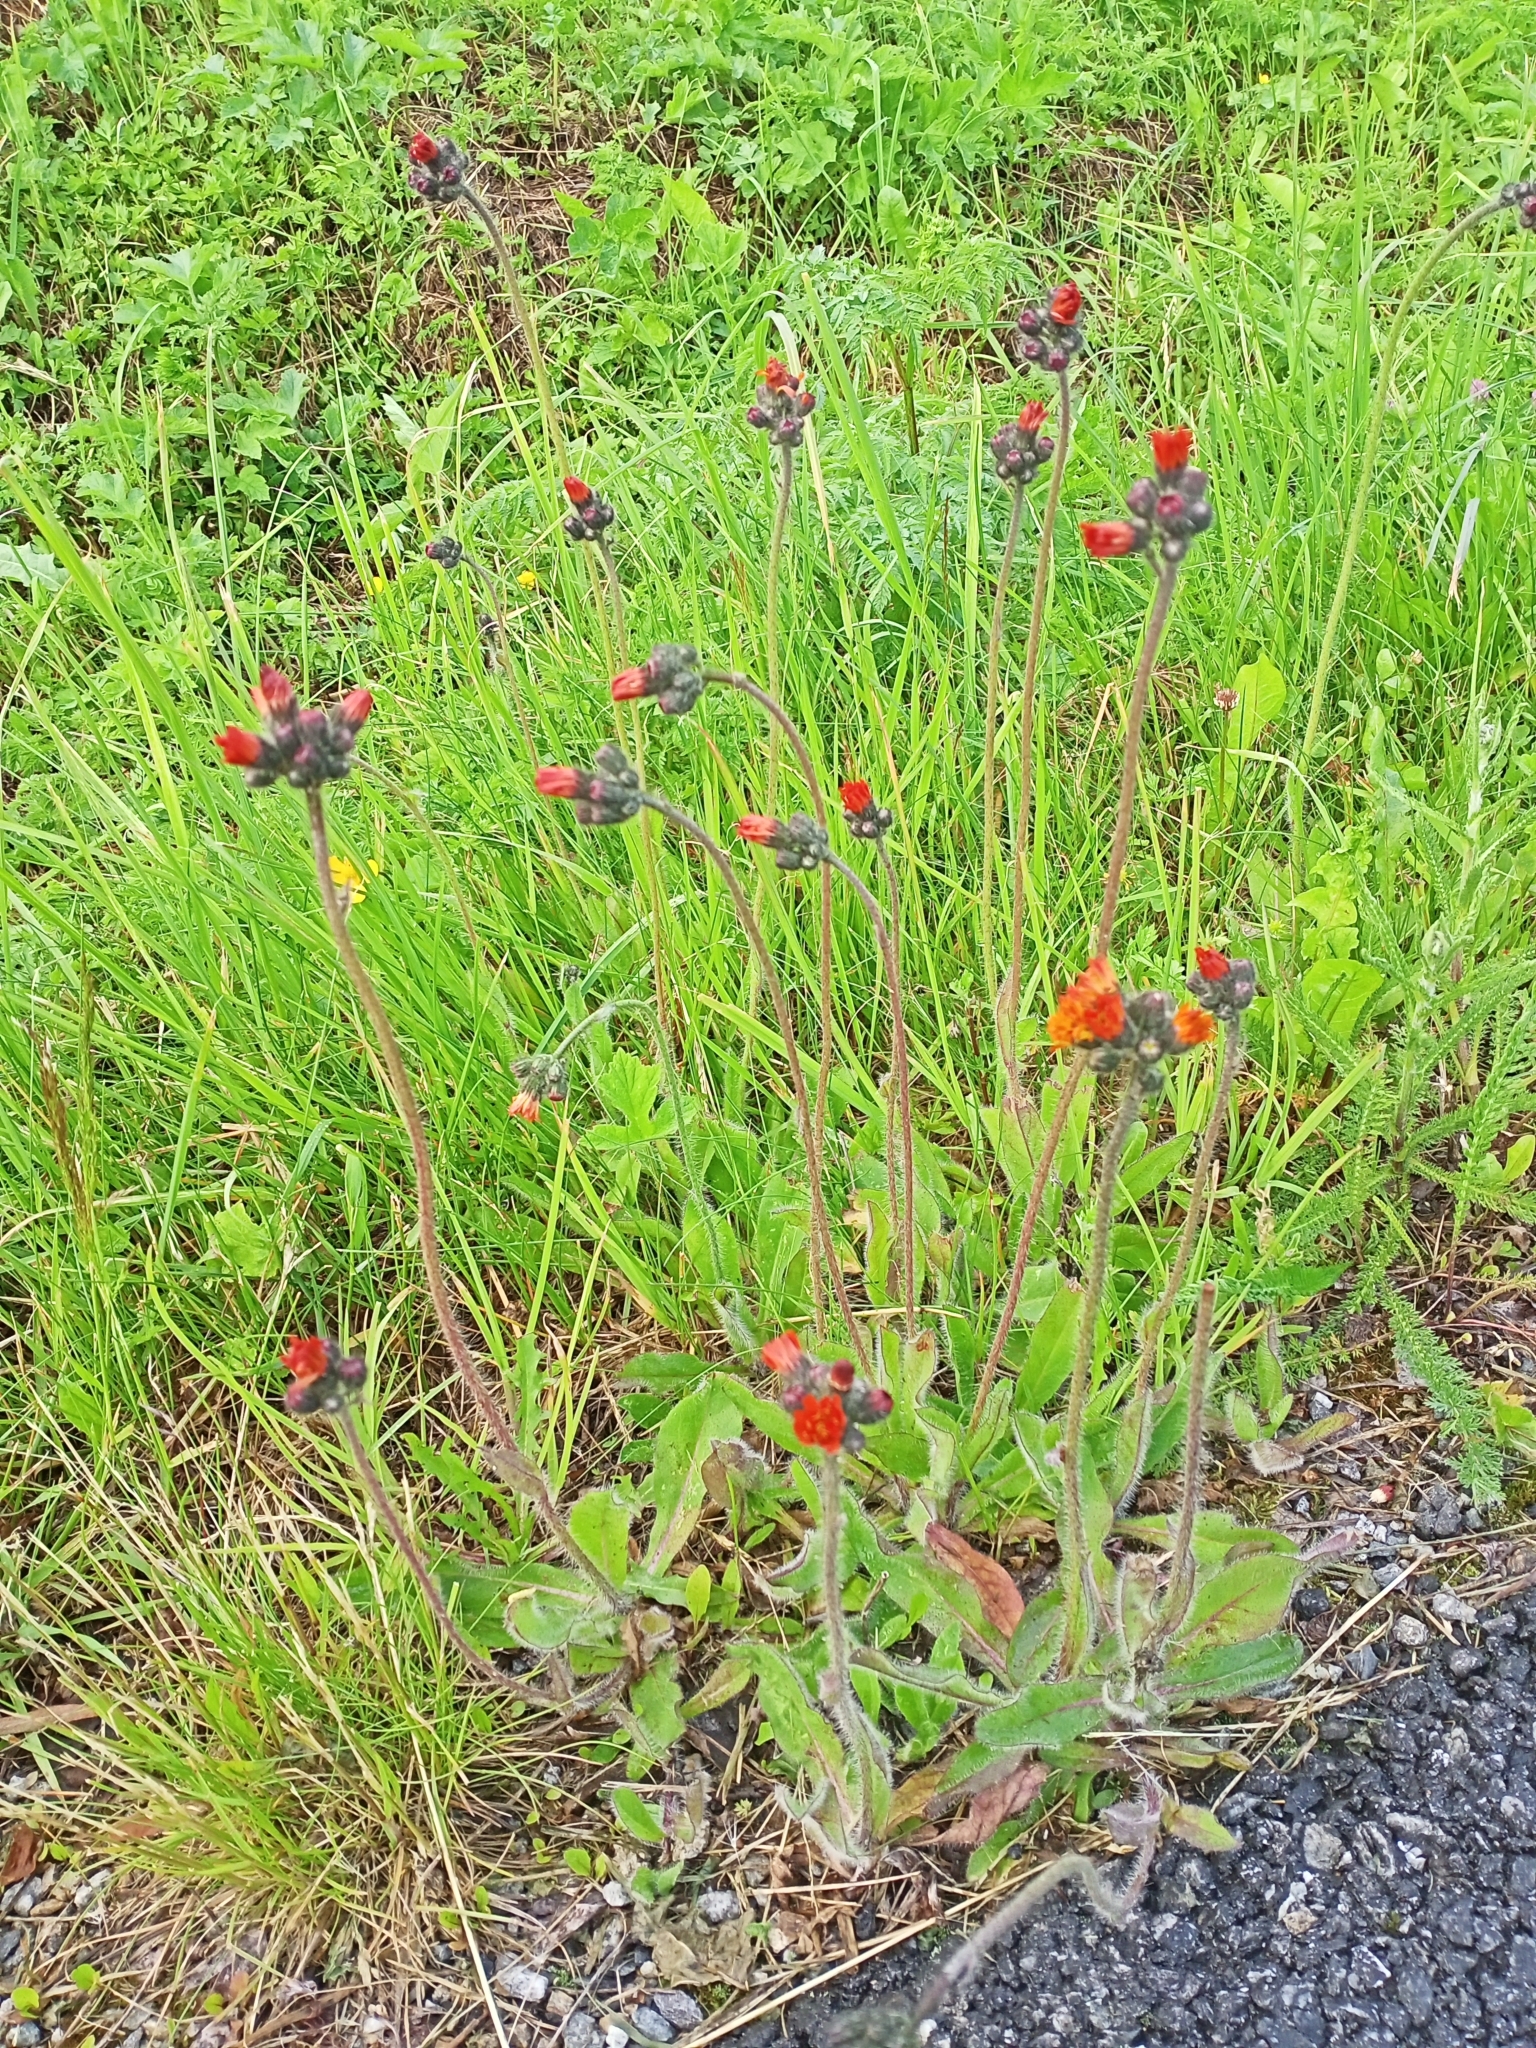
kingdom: Plantae
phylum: Tracheophyta
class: Magnoliopsida
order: Asterales
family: Asteraceae
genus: Pilosella
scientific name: Pilosella aurantiaca
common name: Fox-and-cubs
